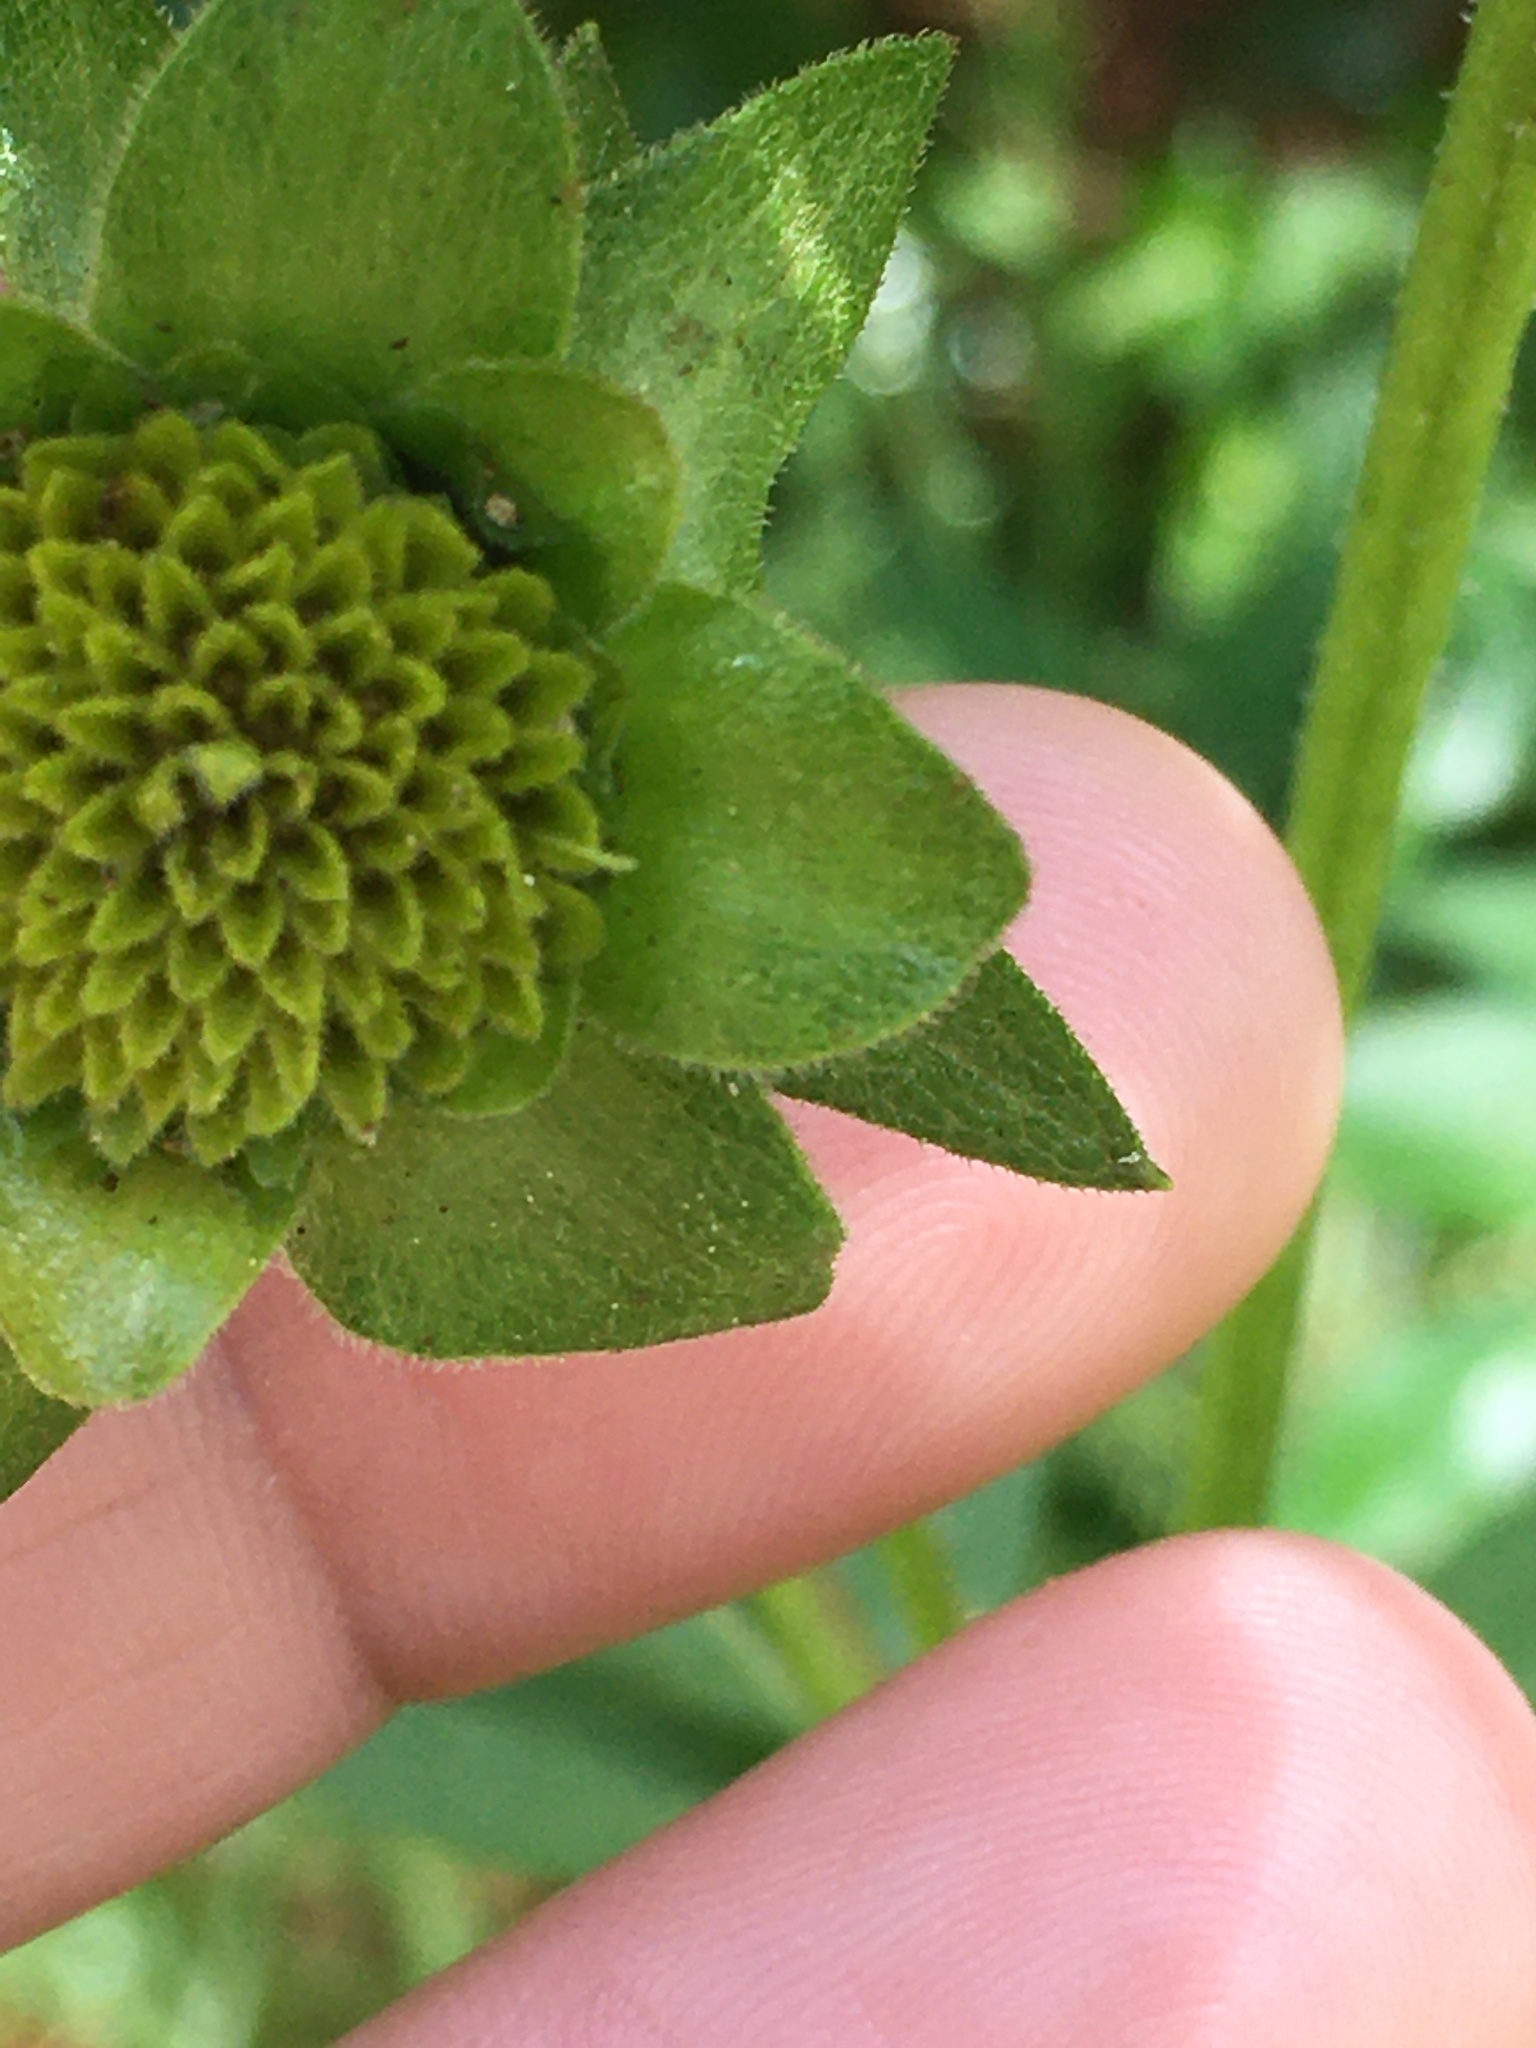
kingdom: Plantae
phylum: Tracheophyta
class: Magnoliopsida
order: Asterales
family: Asteraceae
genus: Silphium
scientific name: Silphium asteriscus
